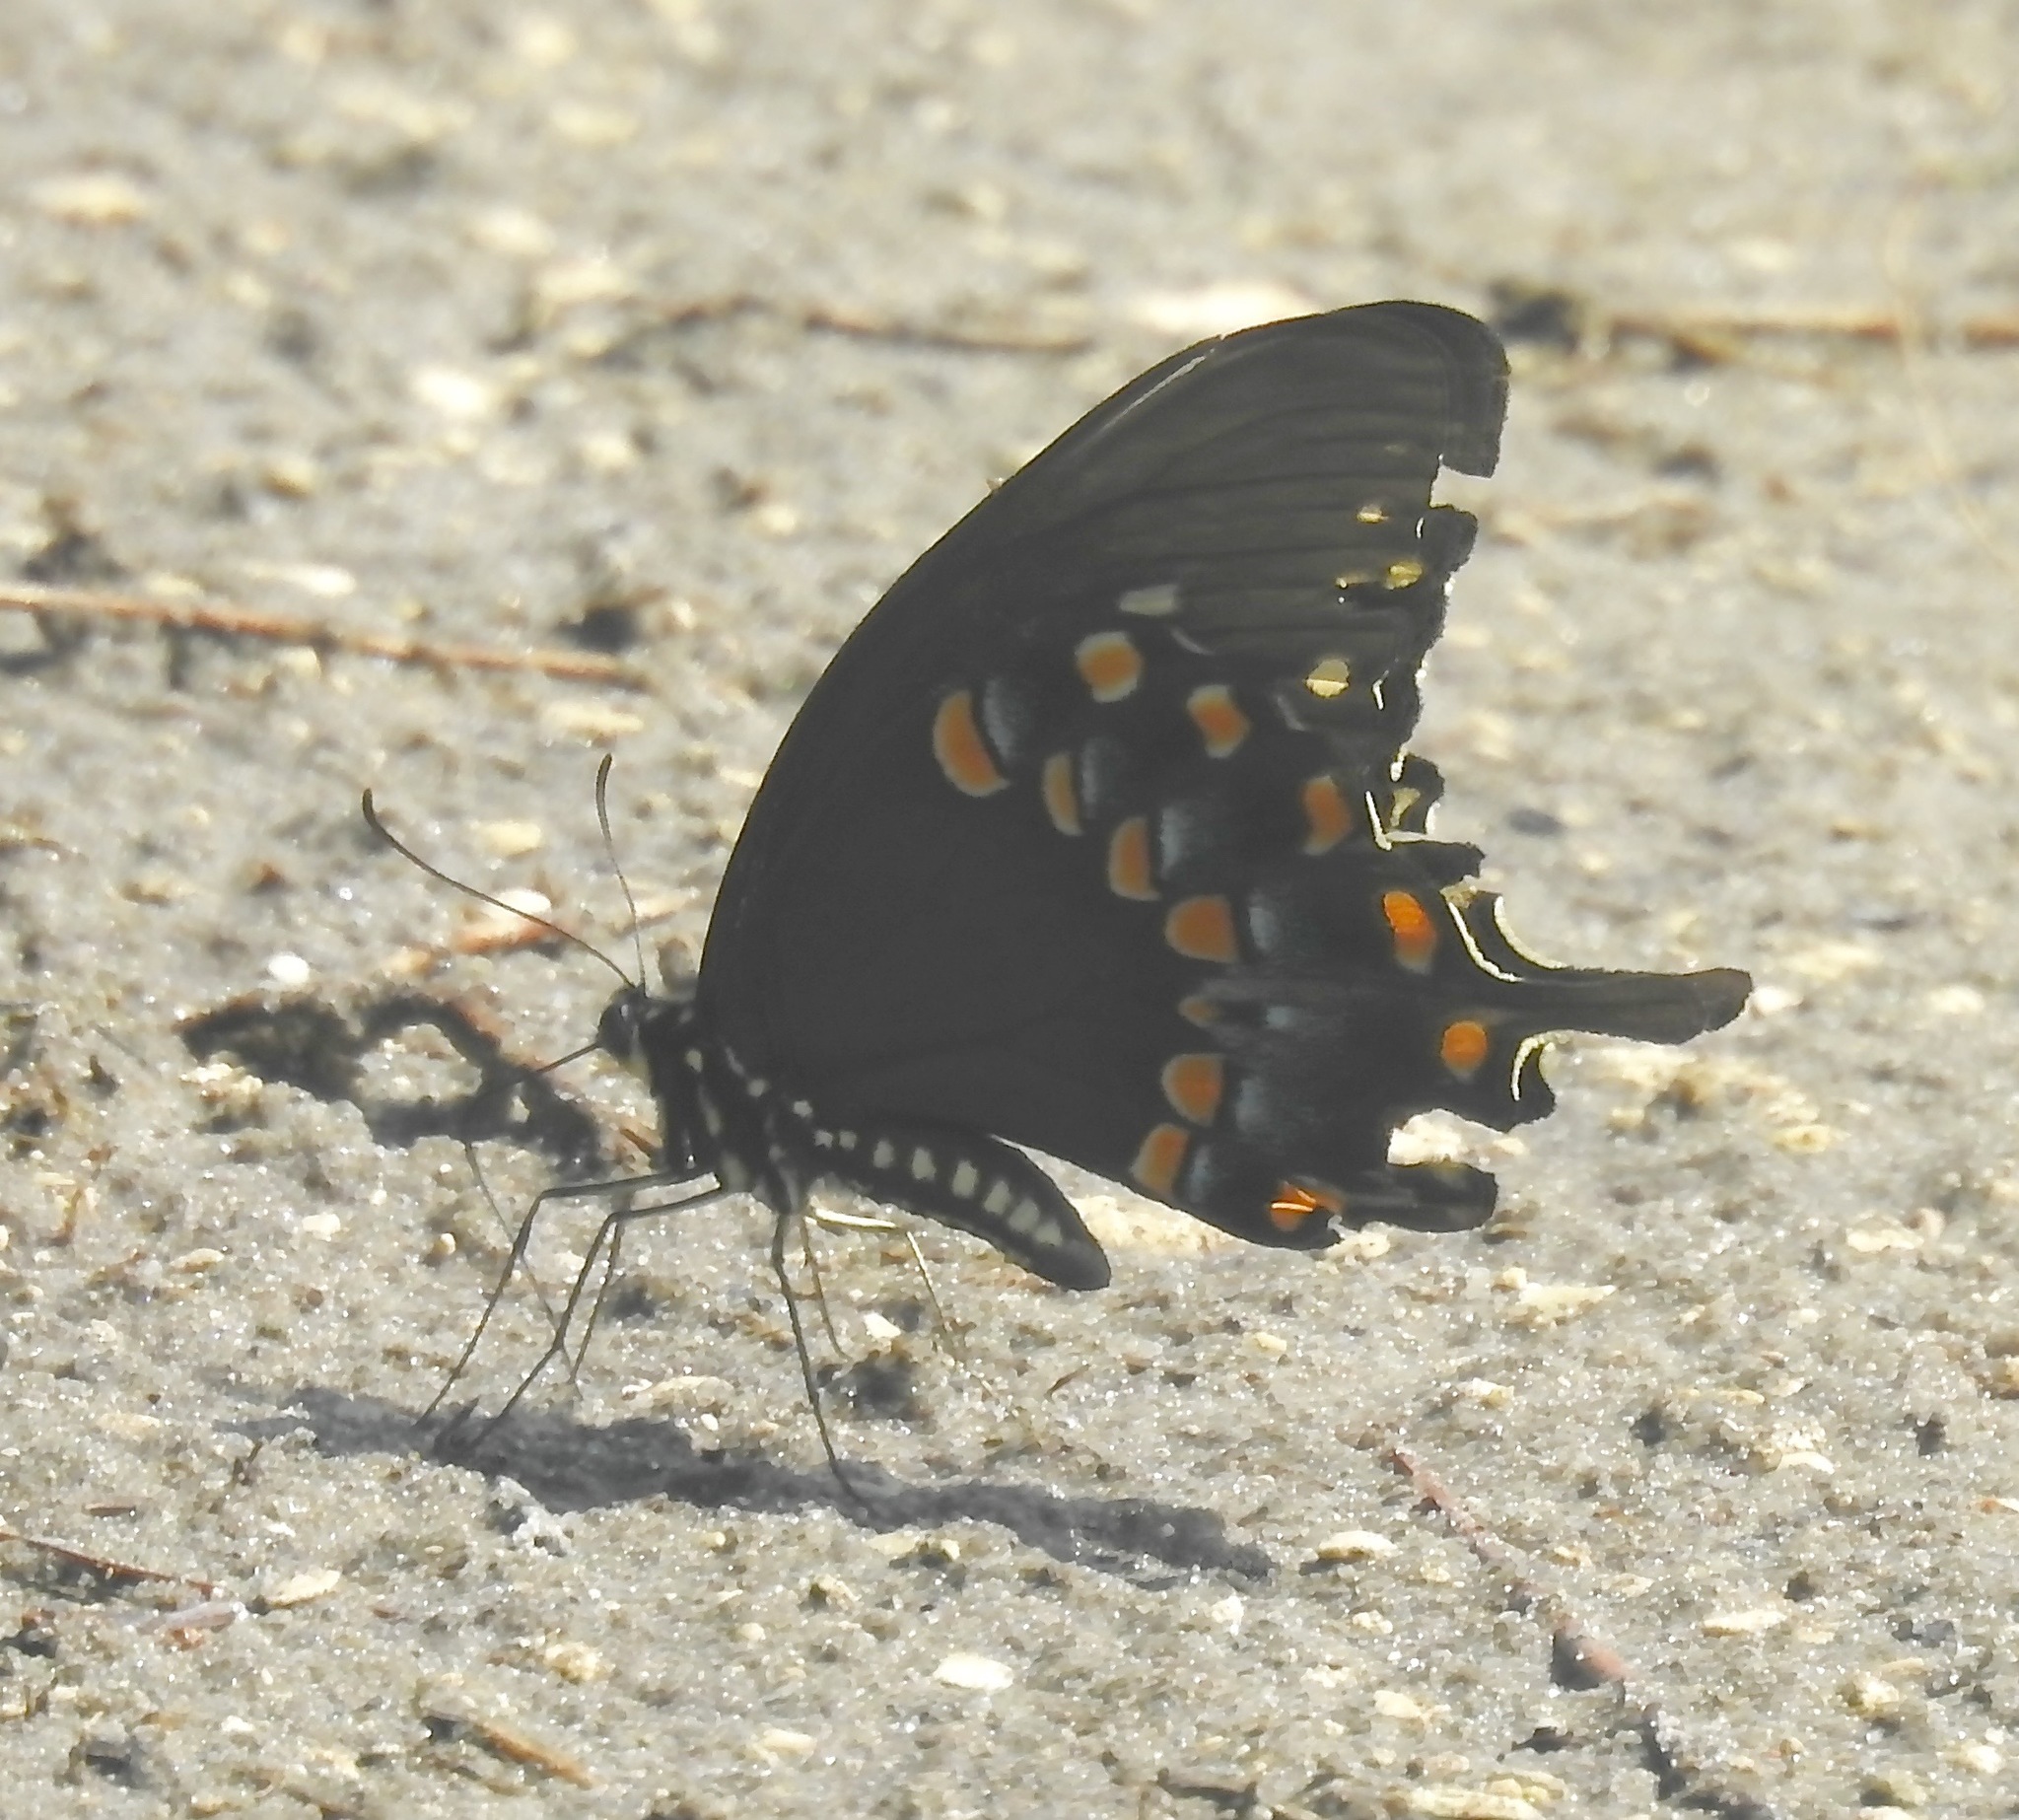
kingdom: Animalia
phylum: Arthropoda
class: Insecta
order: Lepidoptera
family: Papilionidae
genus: Papilio
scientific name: Papilio troilus
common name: Spicebush swallowtail
